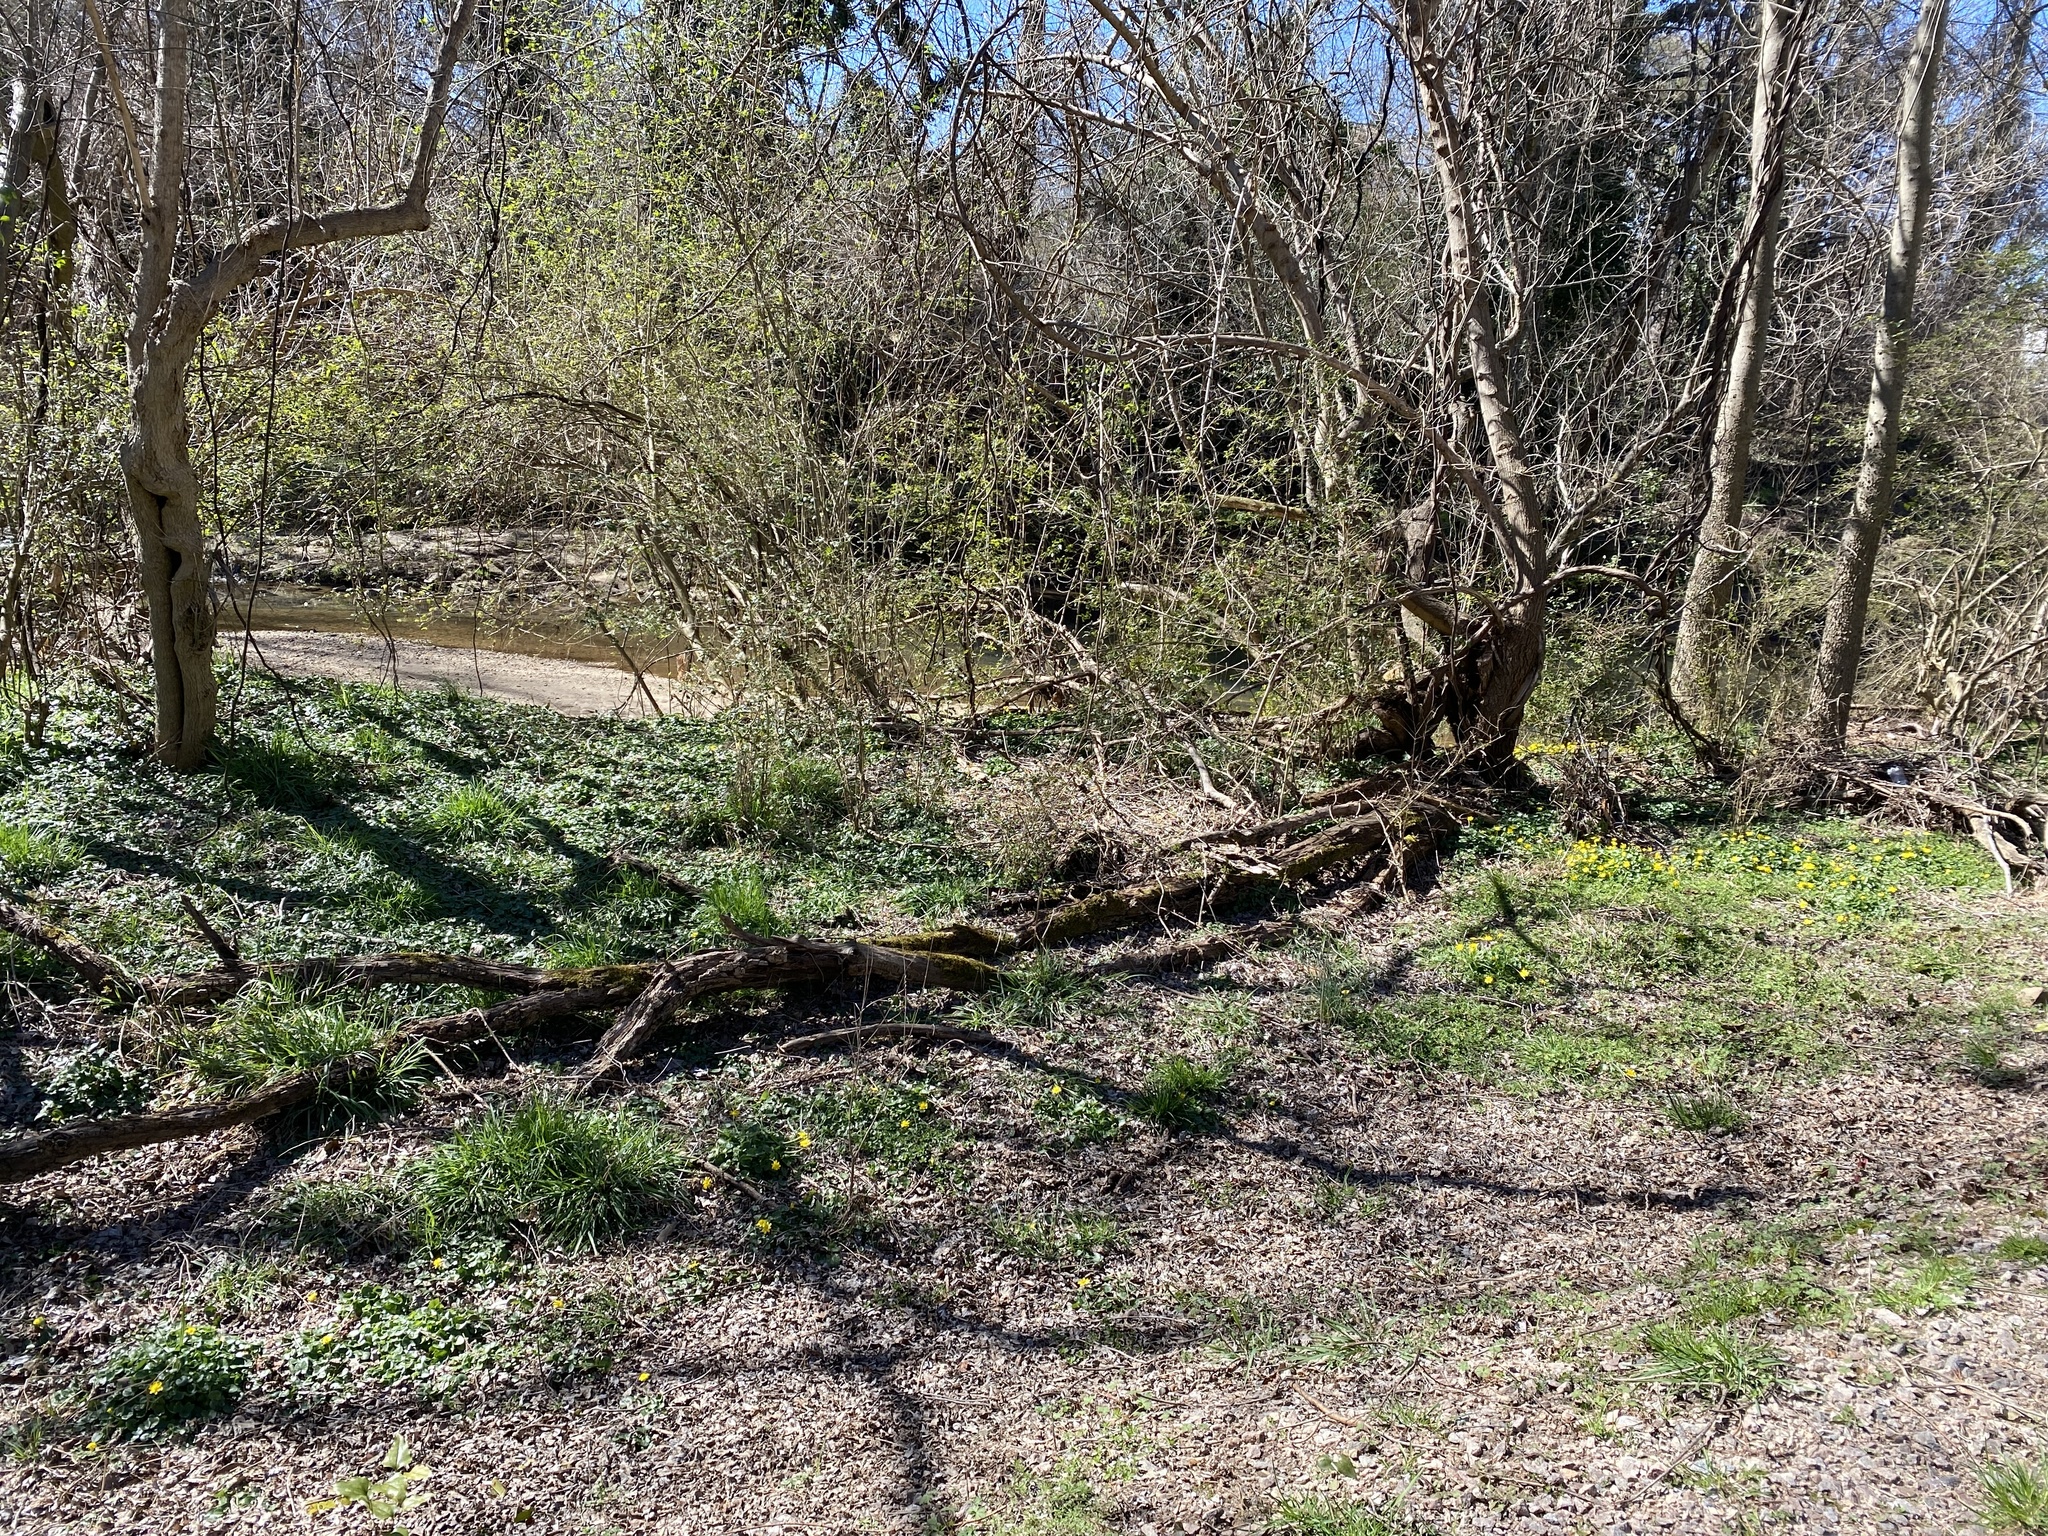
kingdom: Plantae
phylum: Tracheophyta
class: Magnoliopsida
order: Ranunculales
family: Ranunculaceae
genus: Ficaria
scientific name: Ficaria verna
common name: Lesser celandine
